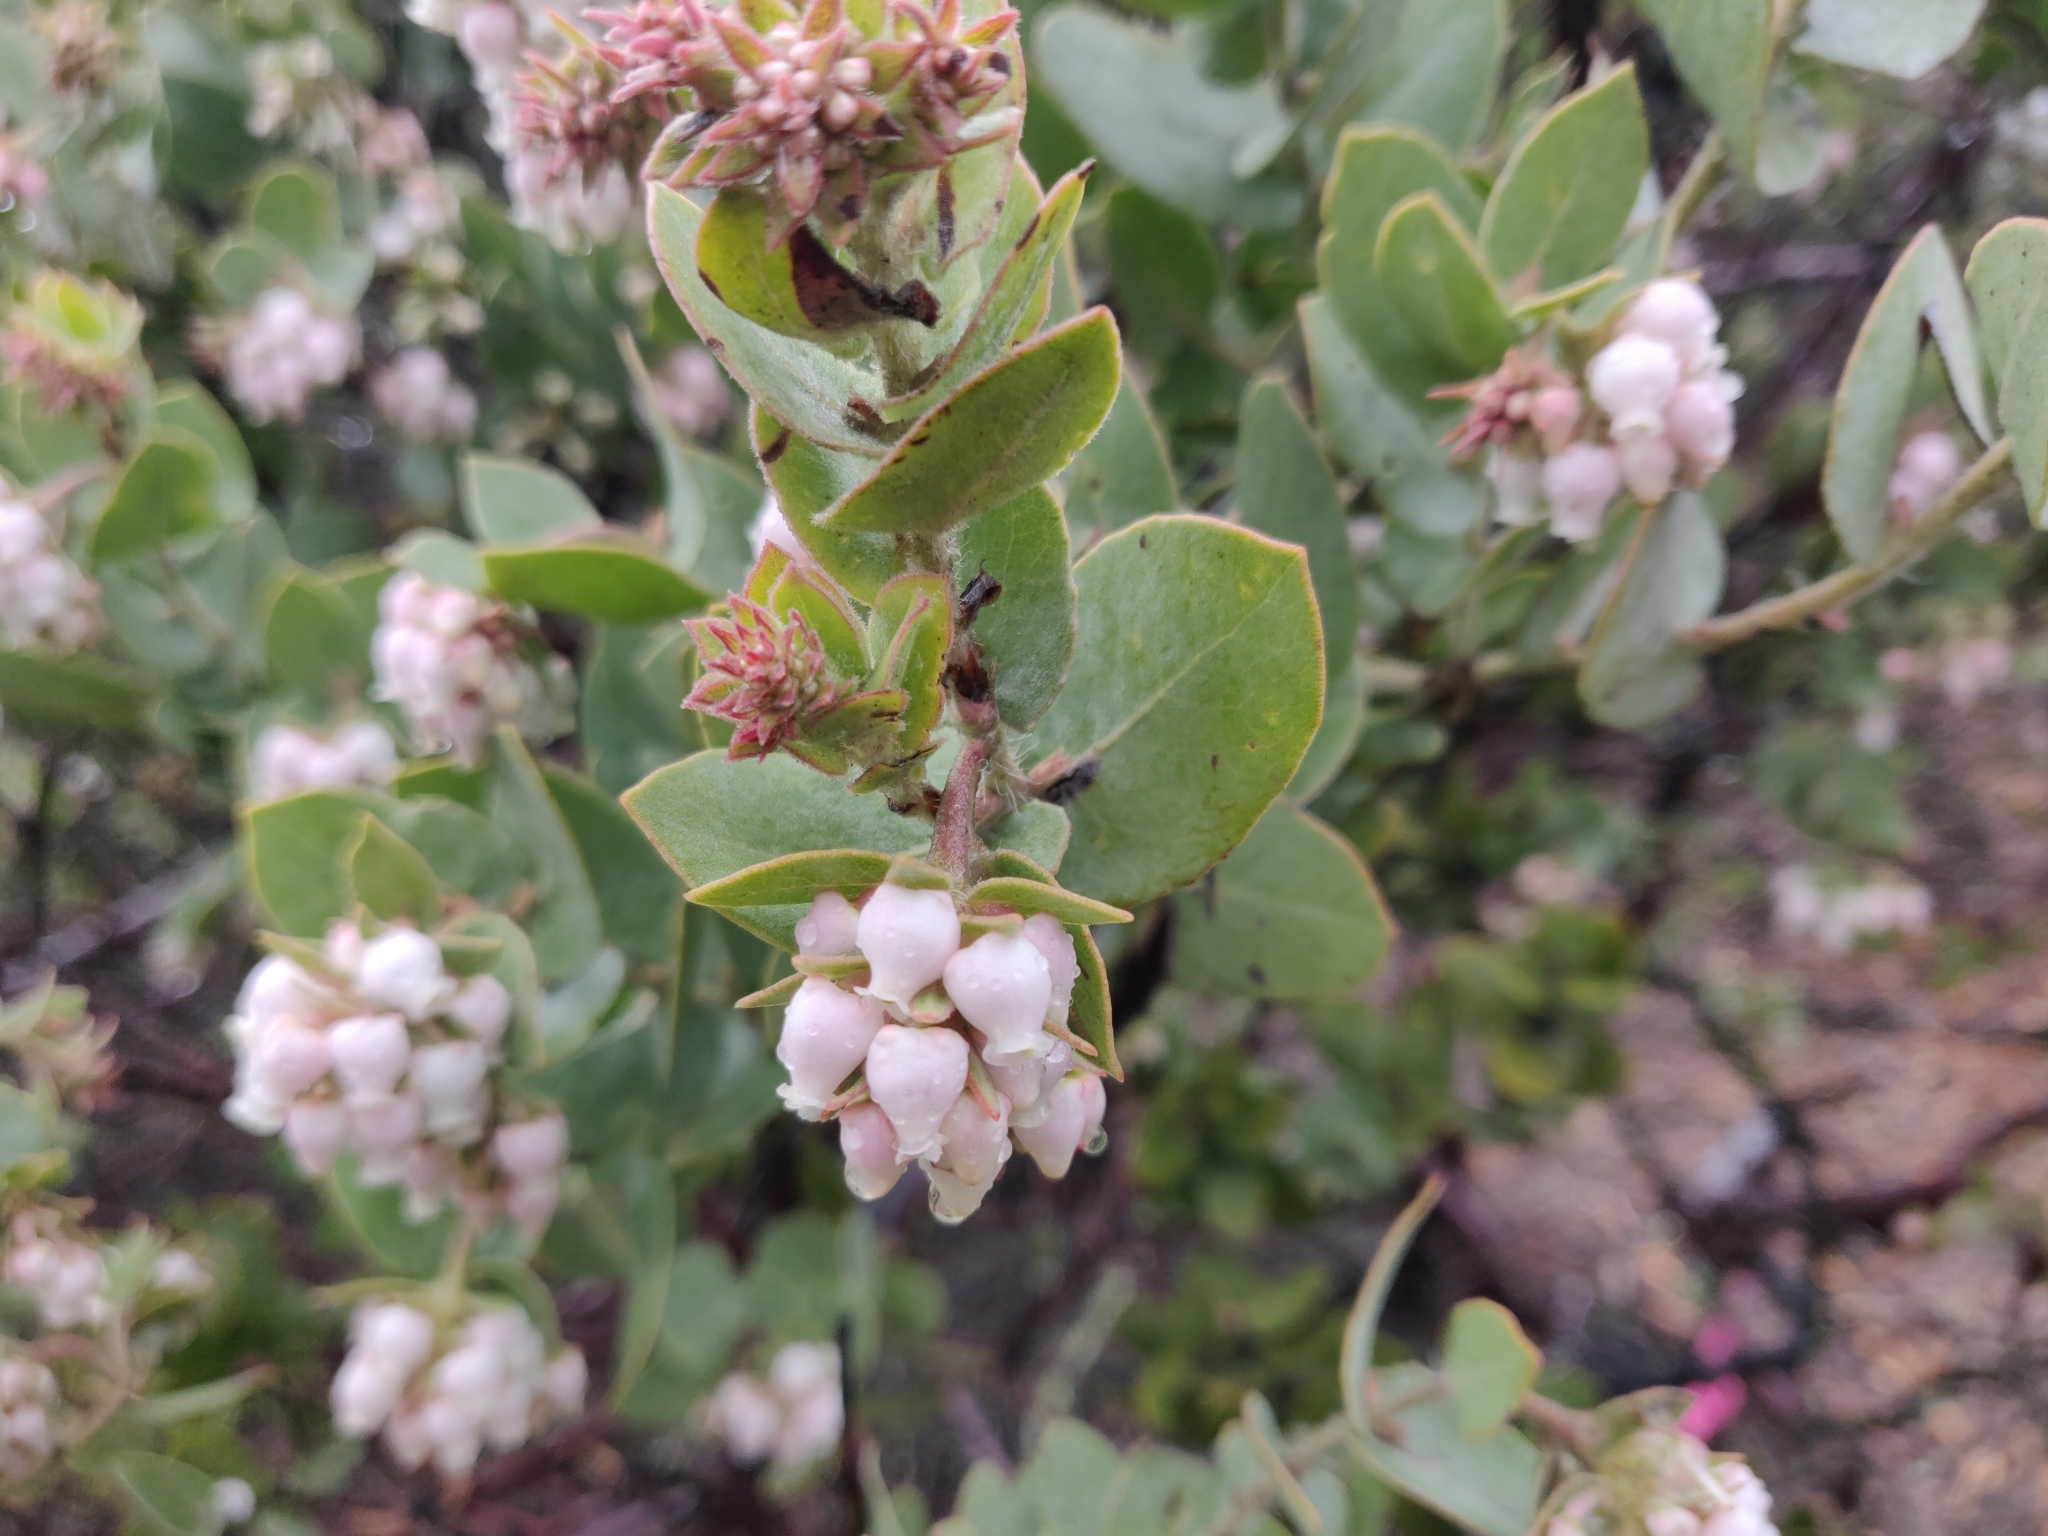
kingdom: Plantae
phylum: Tracheophyta
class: Magnoliopsida
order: Ericales
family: Ericaceae
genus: Arctostaphylos
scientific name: Arctostaphylos auriculata
